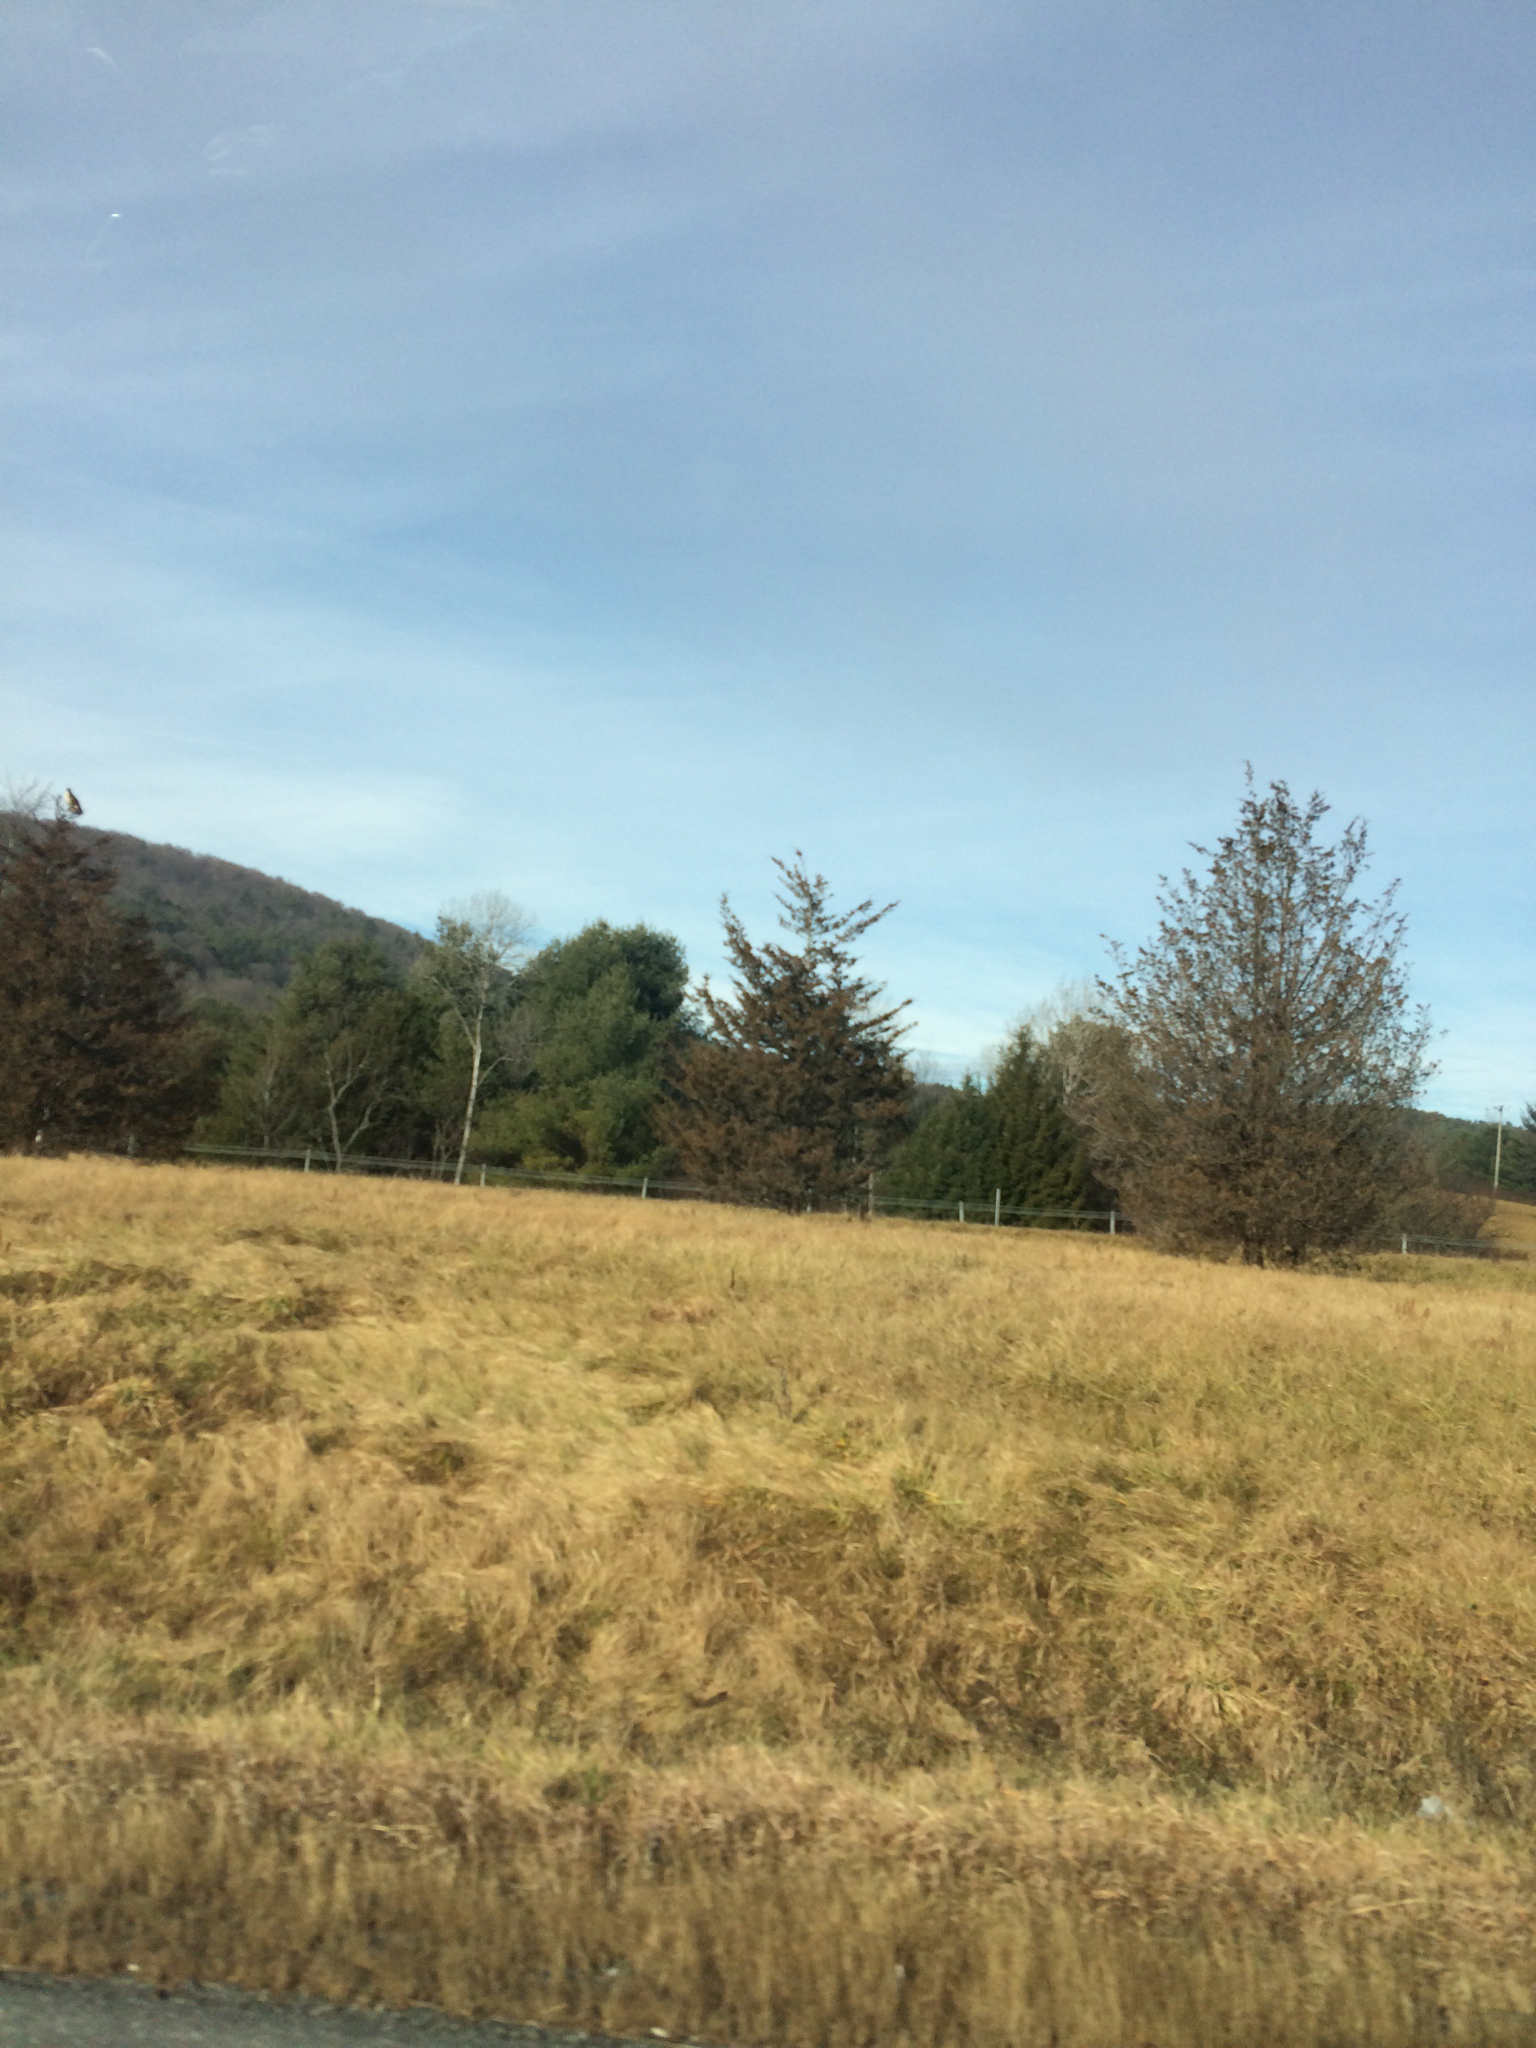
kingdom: Plantae
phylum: Tracheophyta
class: Pinopsida
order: Pinales
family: Cupressaceae
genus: Juniperus
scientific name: Juniperus virginiana
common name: Red juniper
